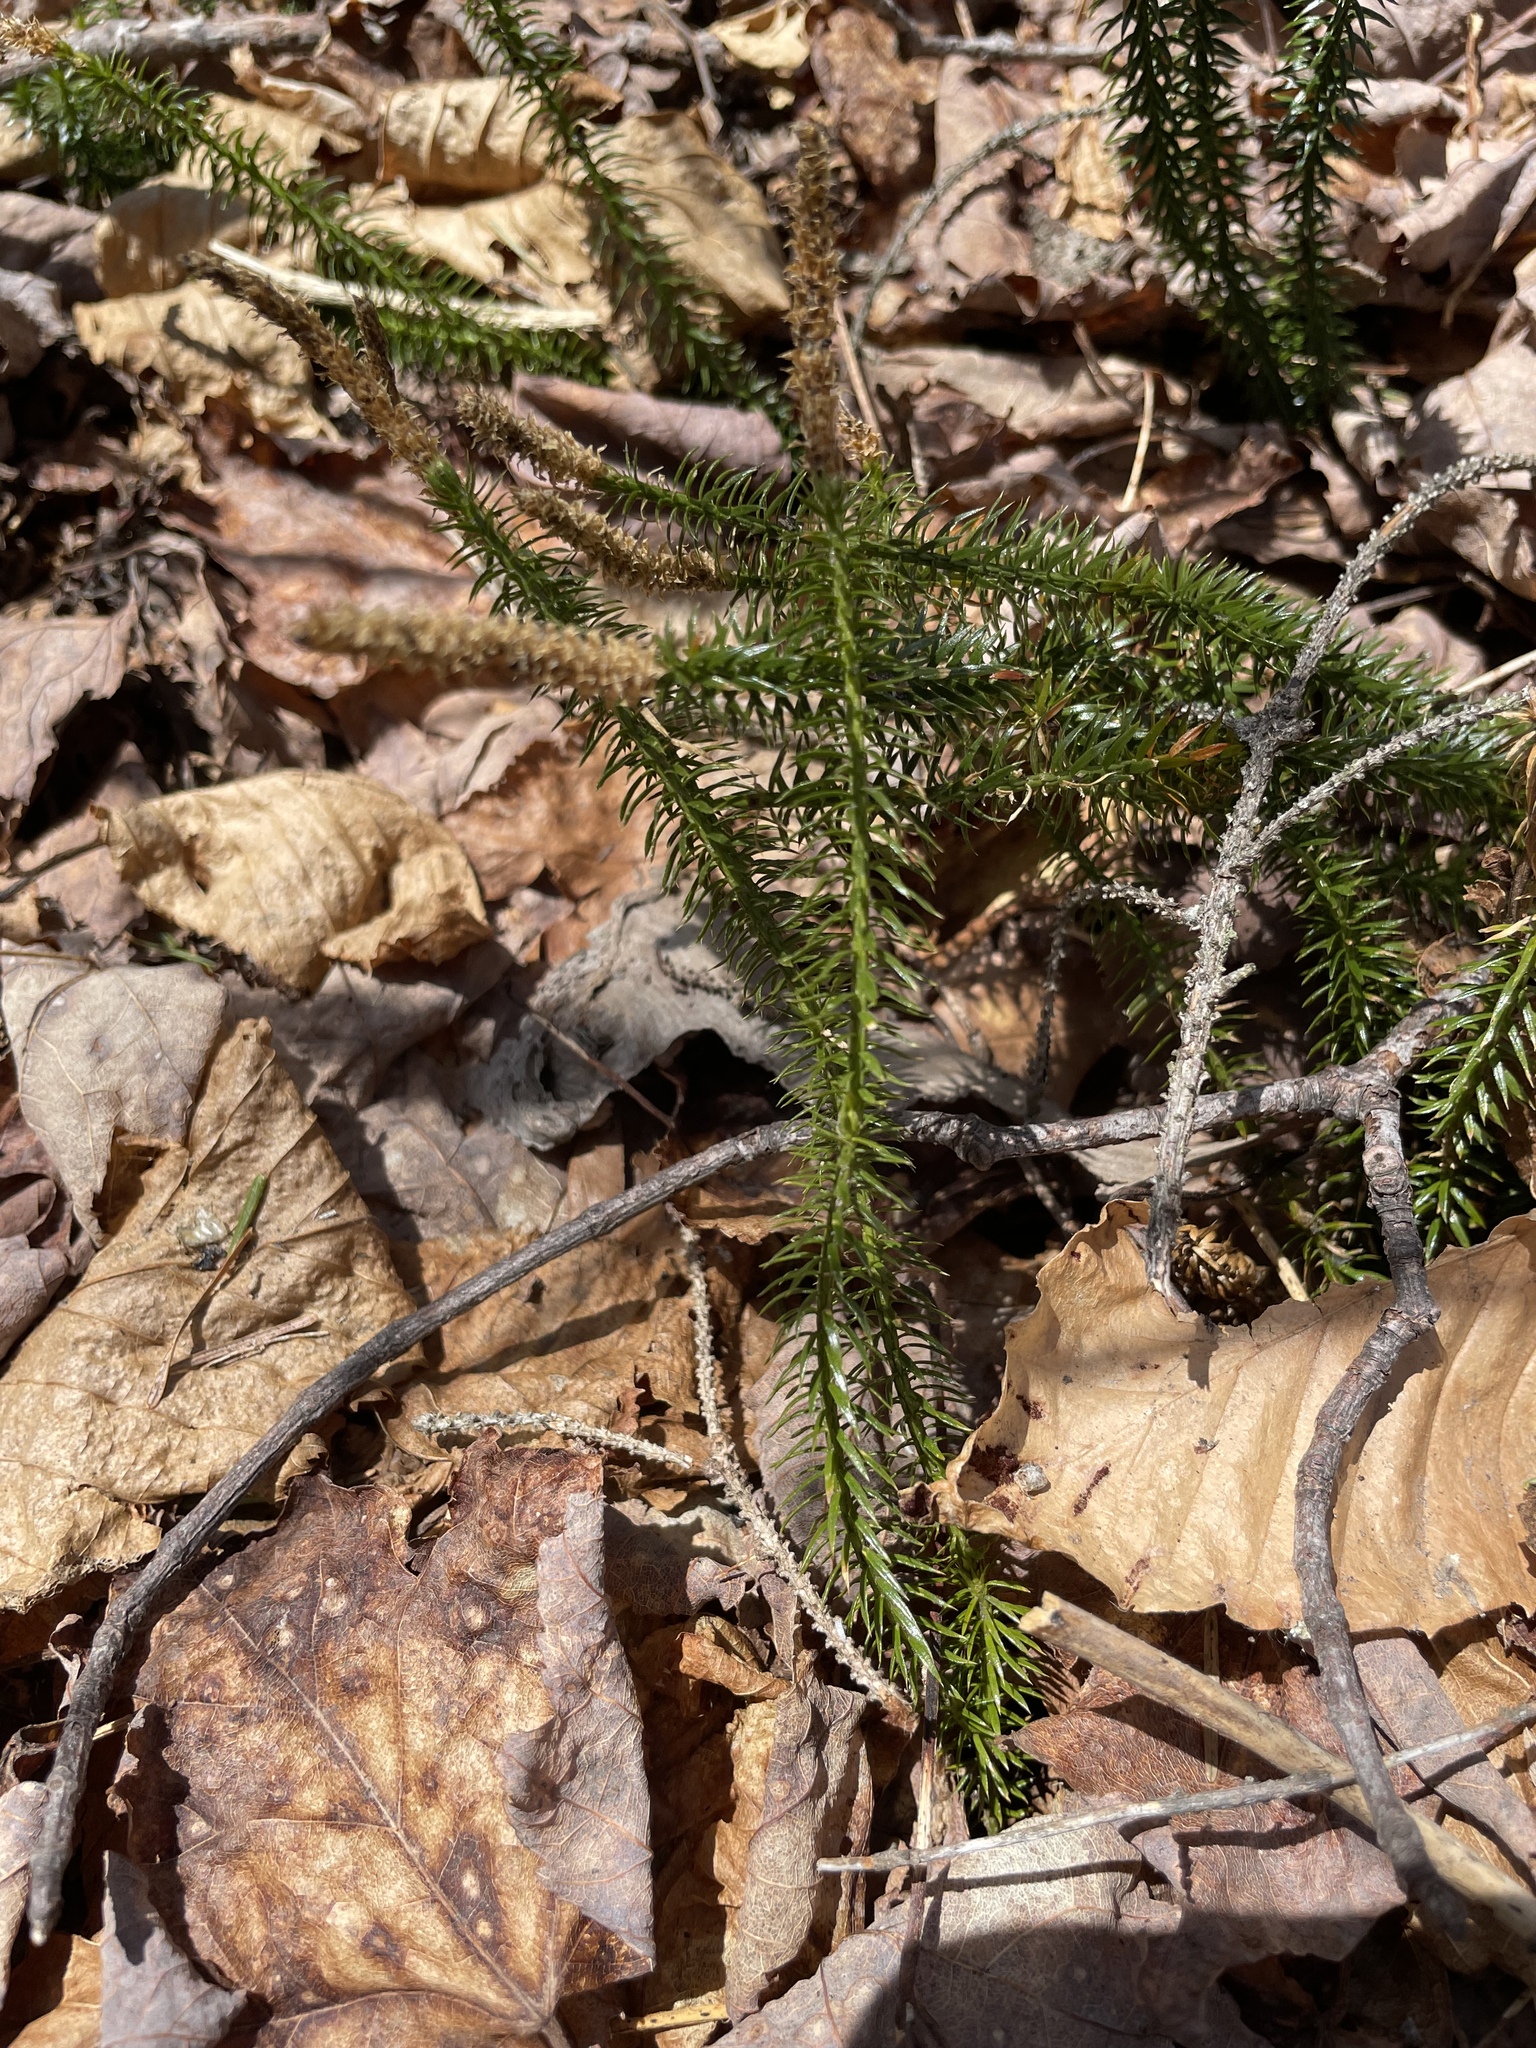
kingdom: Plantae
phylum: Tracheophyta
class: Lycopodiopsida
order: Lycopodiales
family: Lycopodiaceae
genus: Spinulum
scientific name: Spinulum annotinum
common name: Interrupted club-moss
